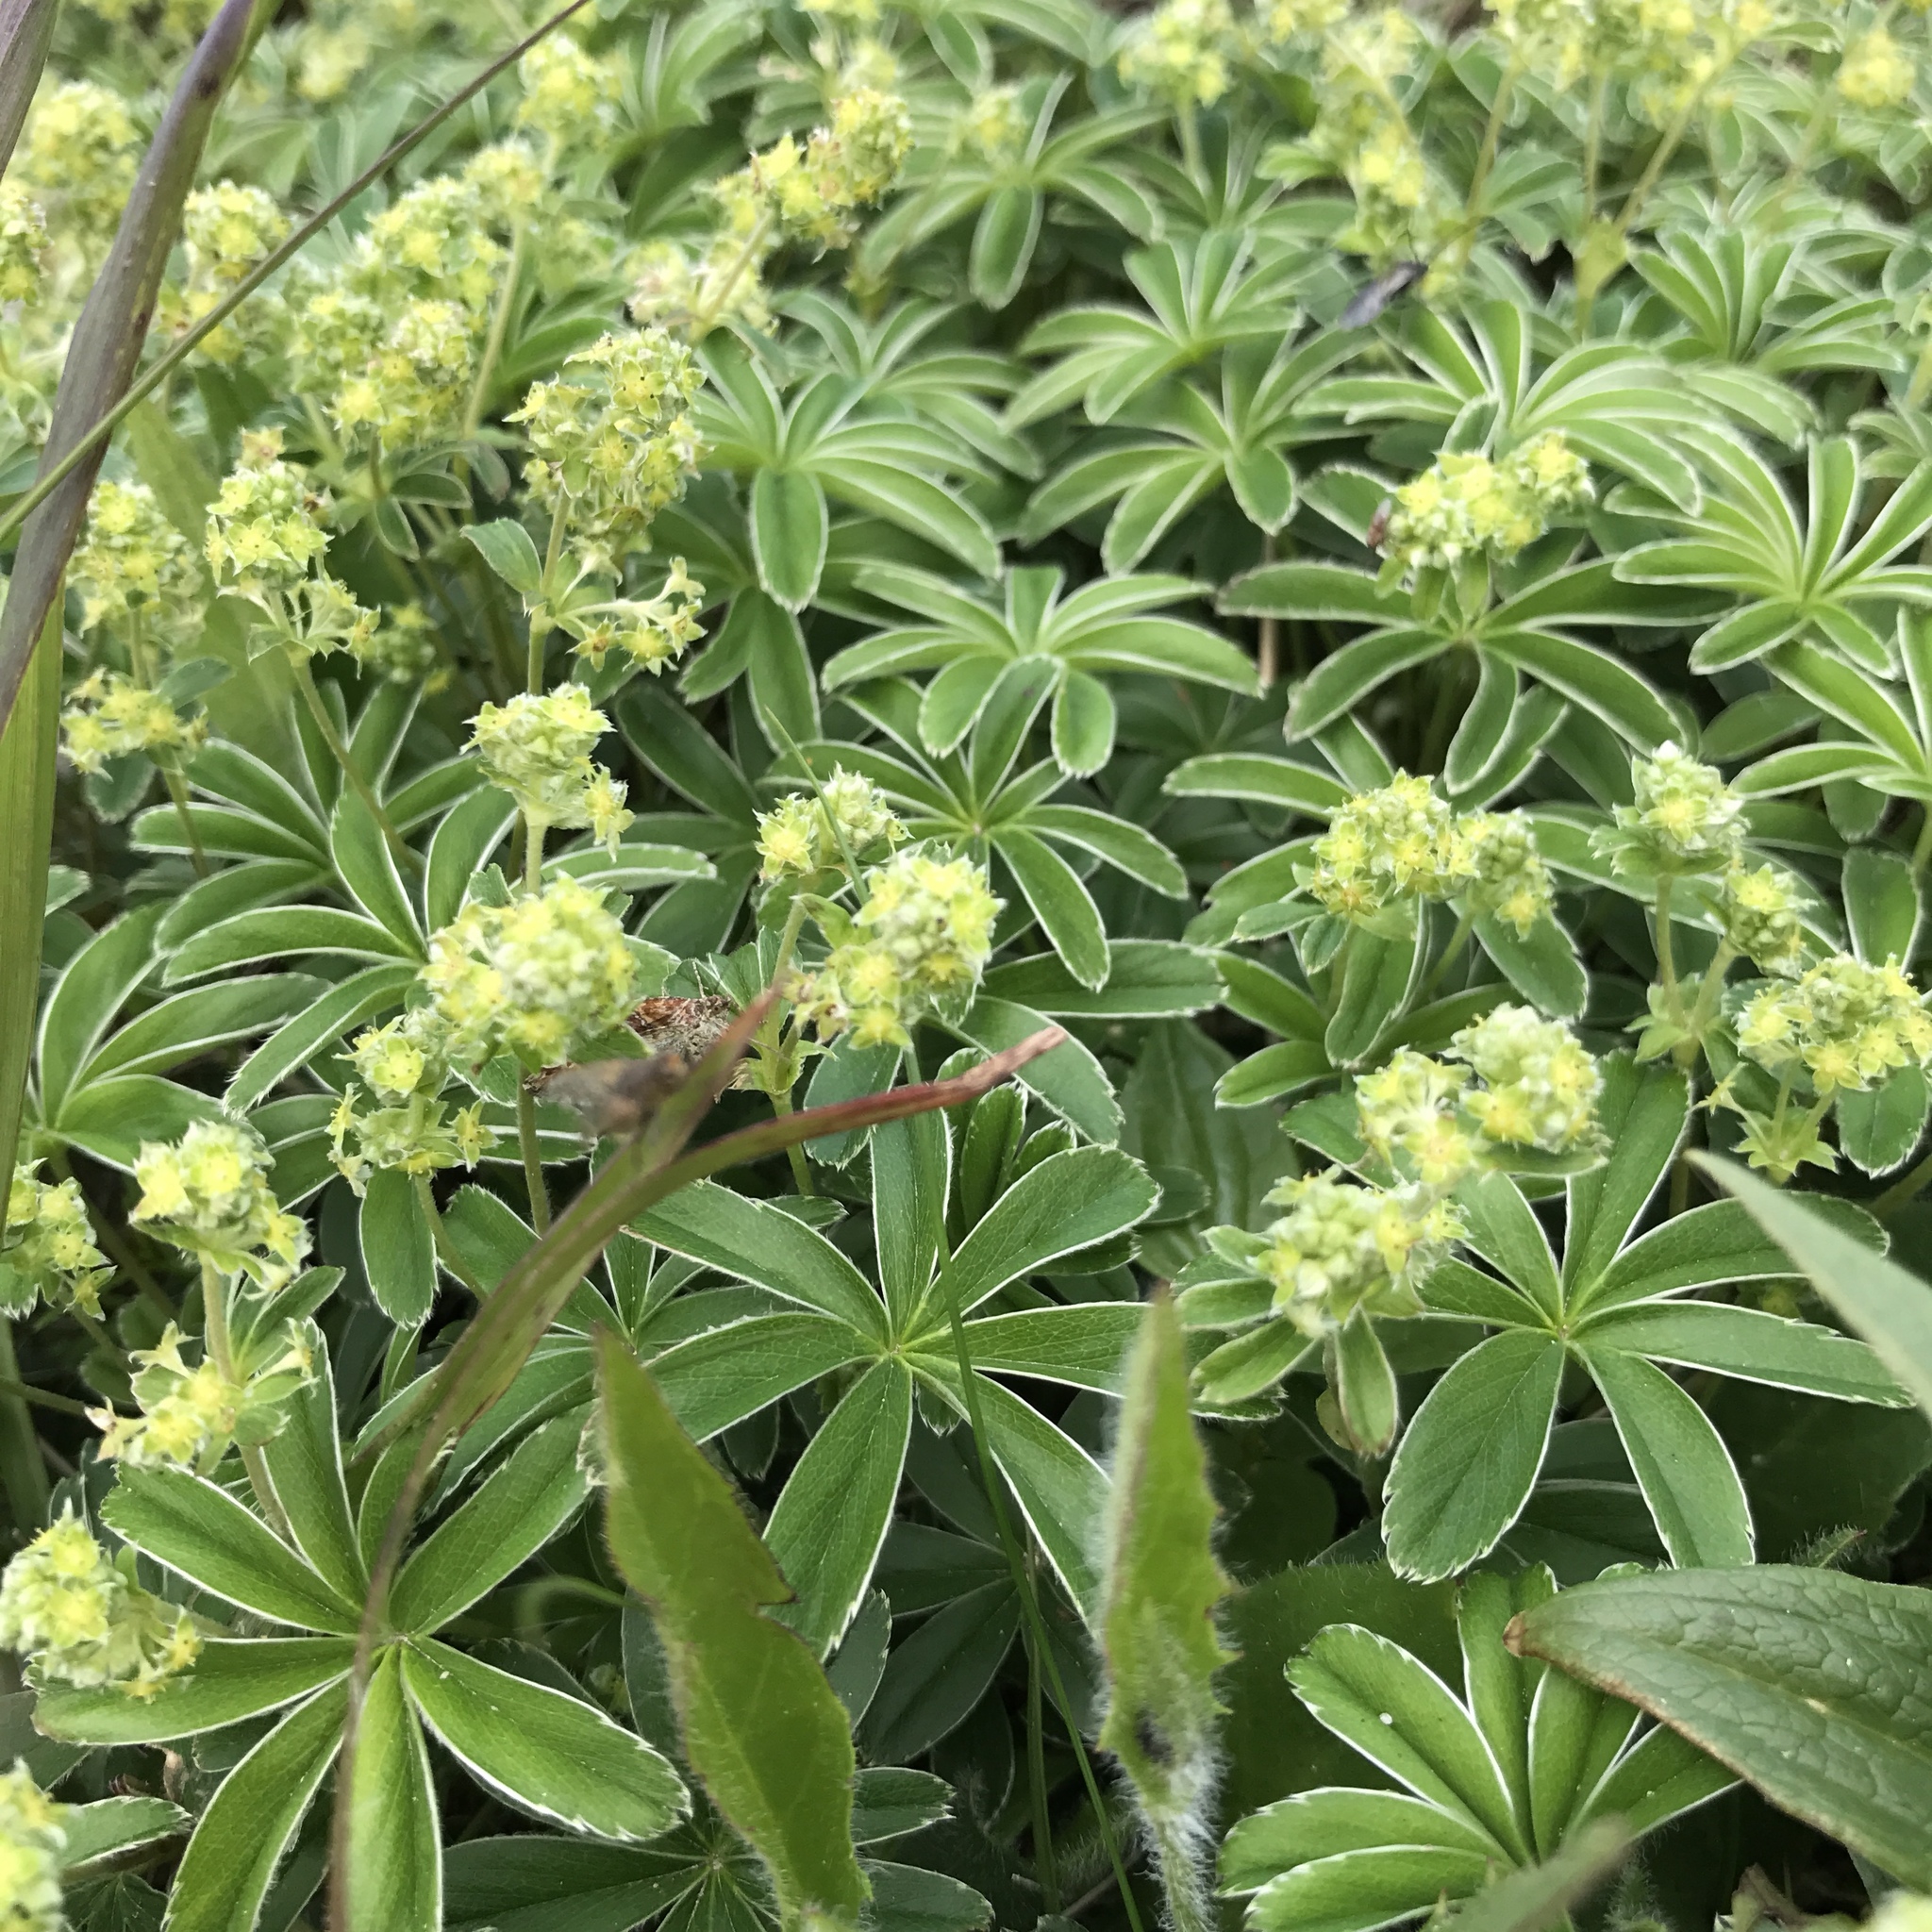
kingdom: Plantae
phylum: Tracheophyta
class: Magnoliopsida
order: Rosales
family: Rosaceae
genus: Alchemilla
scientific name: Alchemilla alpina
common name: Alpine lady's-mantle
